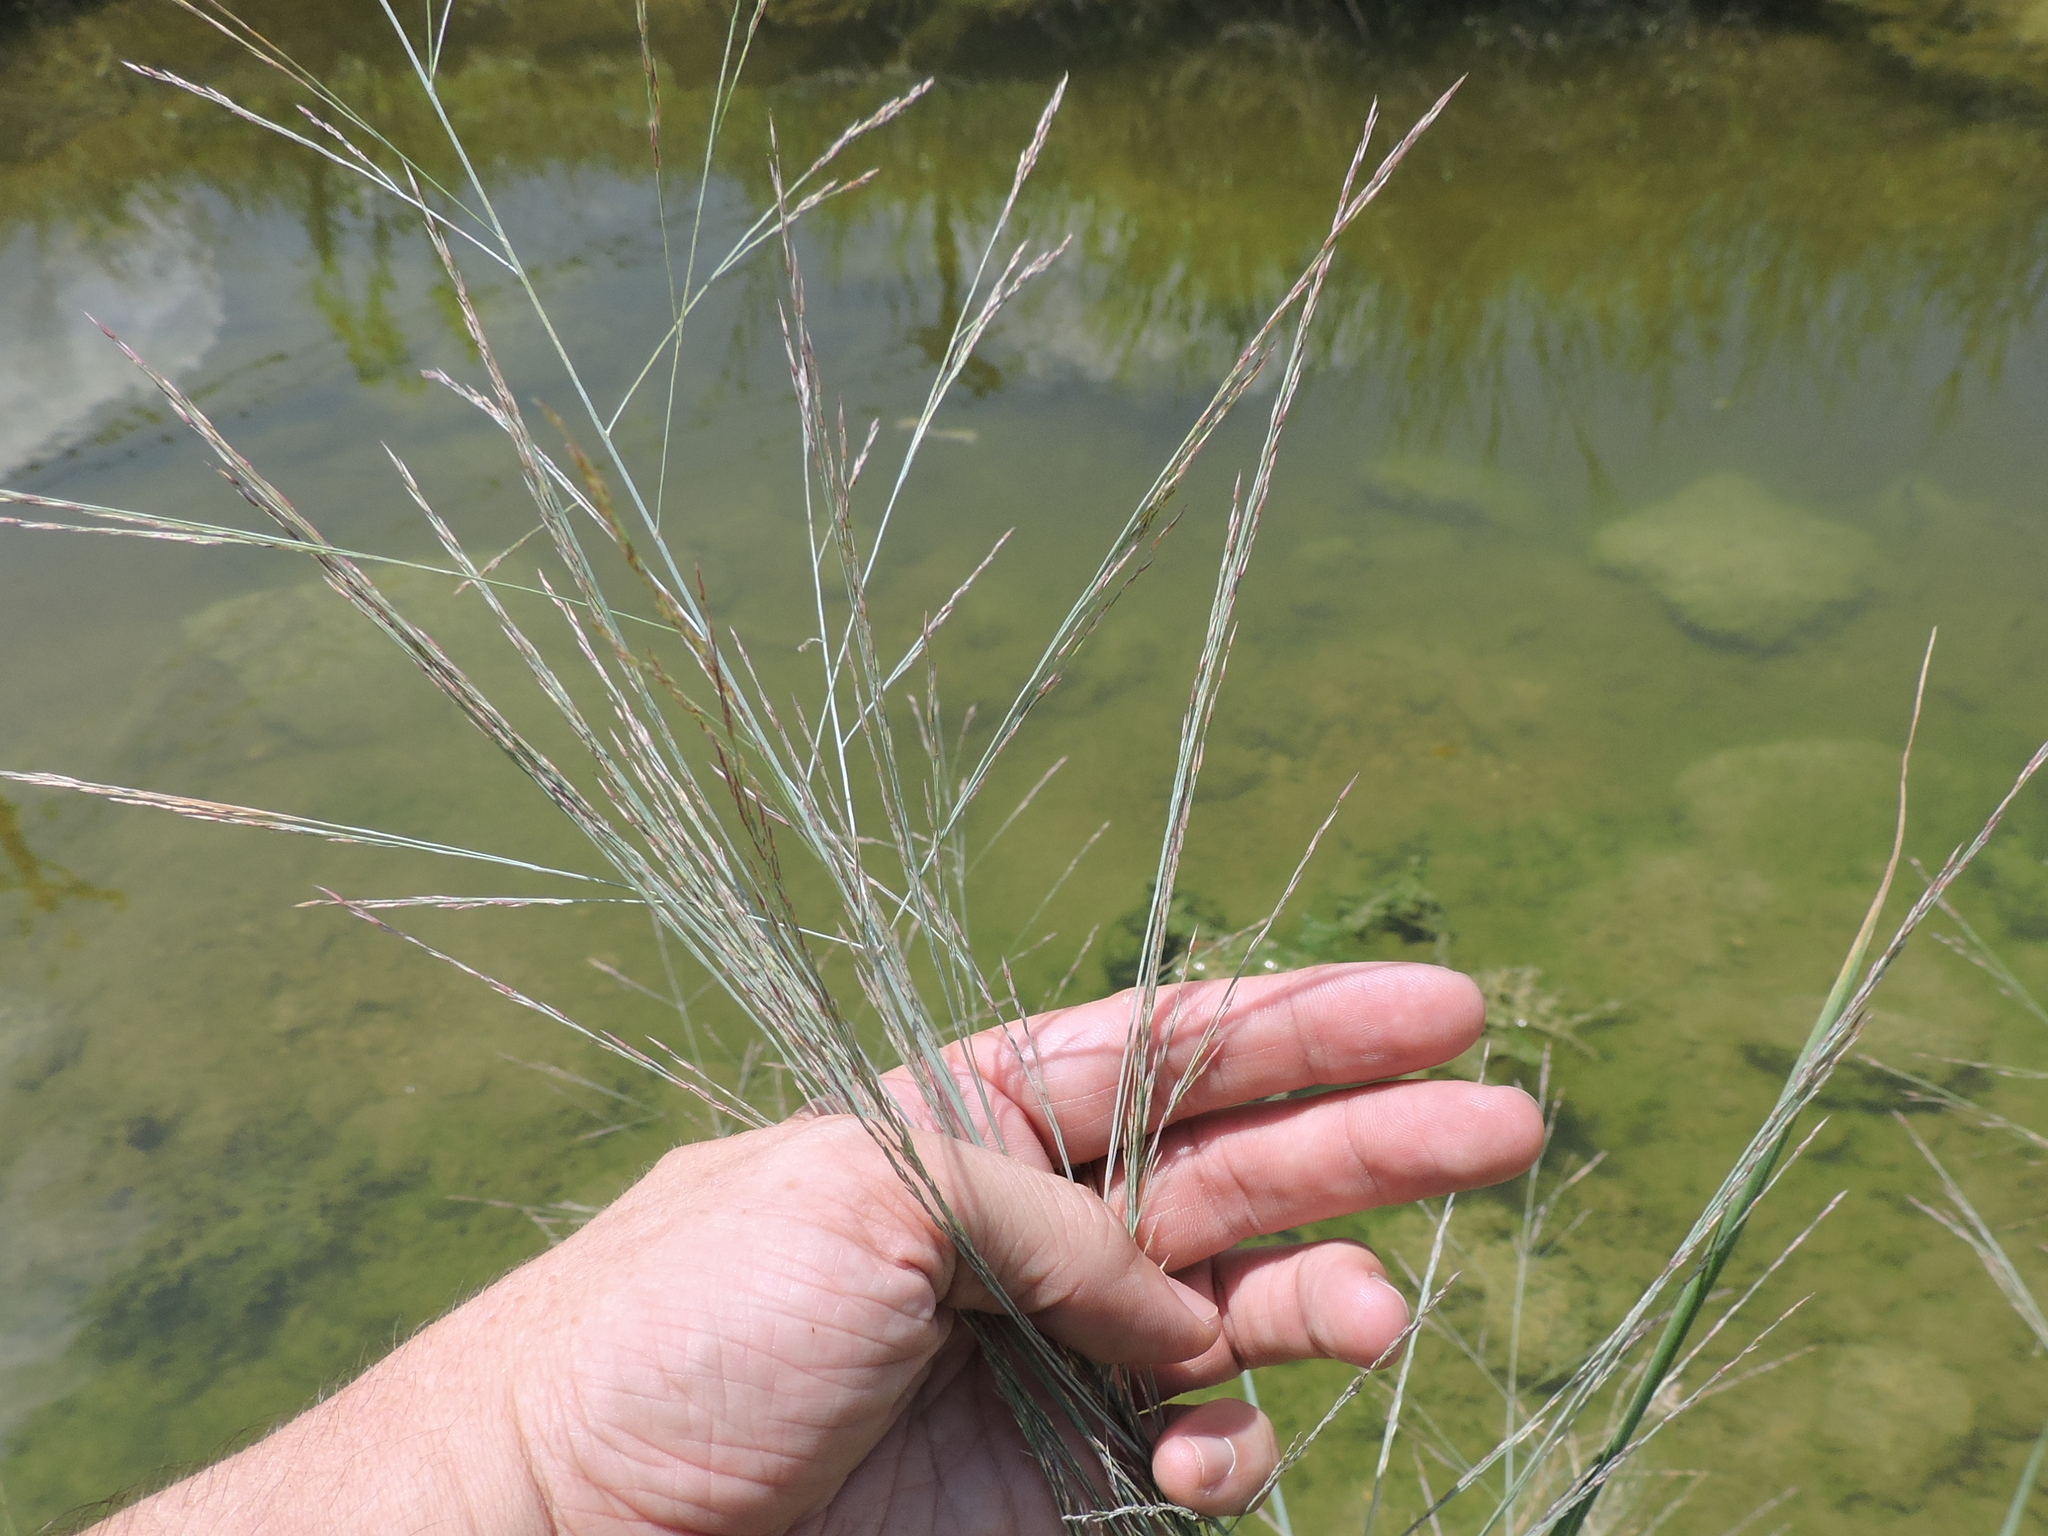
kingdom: Plantae
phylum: Tracheophyta
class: Liliopsida
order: Poales
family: Poaceae
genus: Panicum
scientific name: Panicum virgatum
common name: Switchgrass
